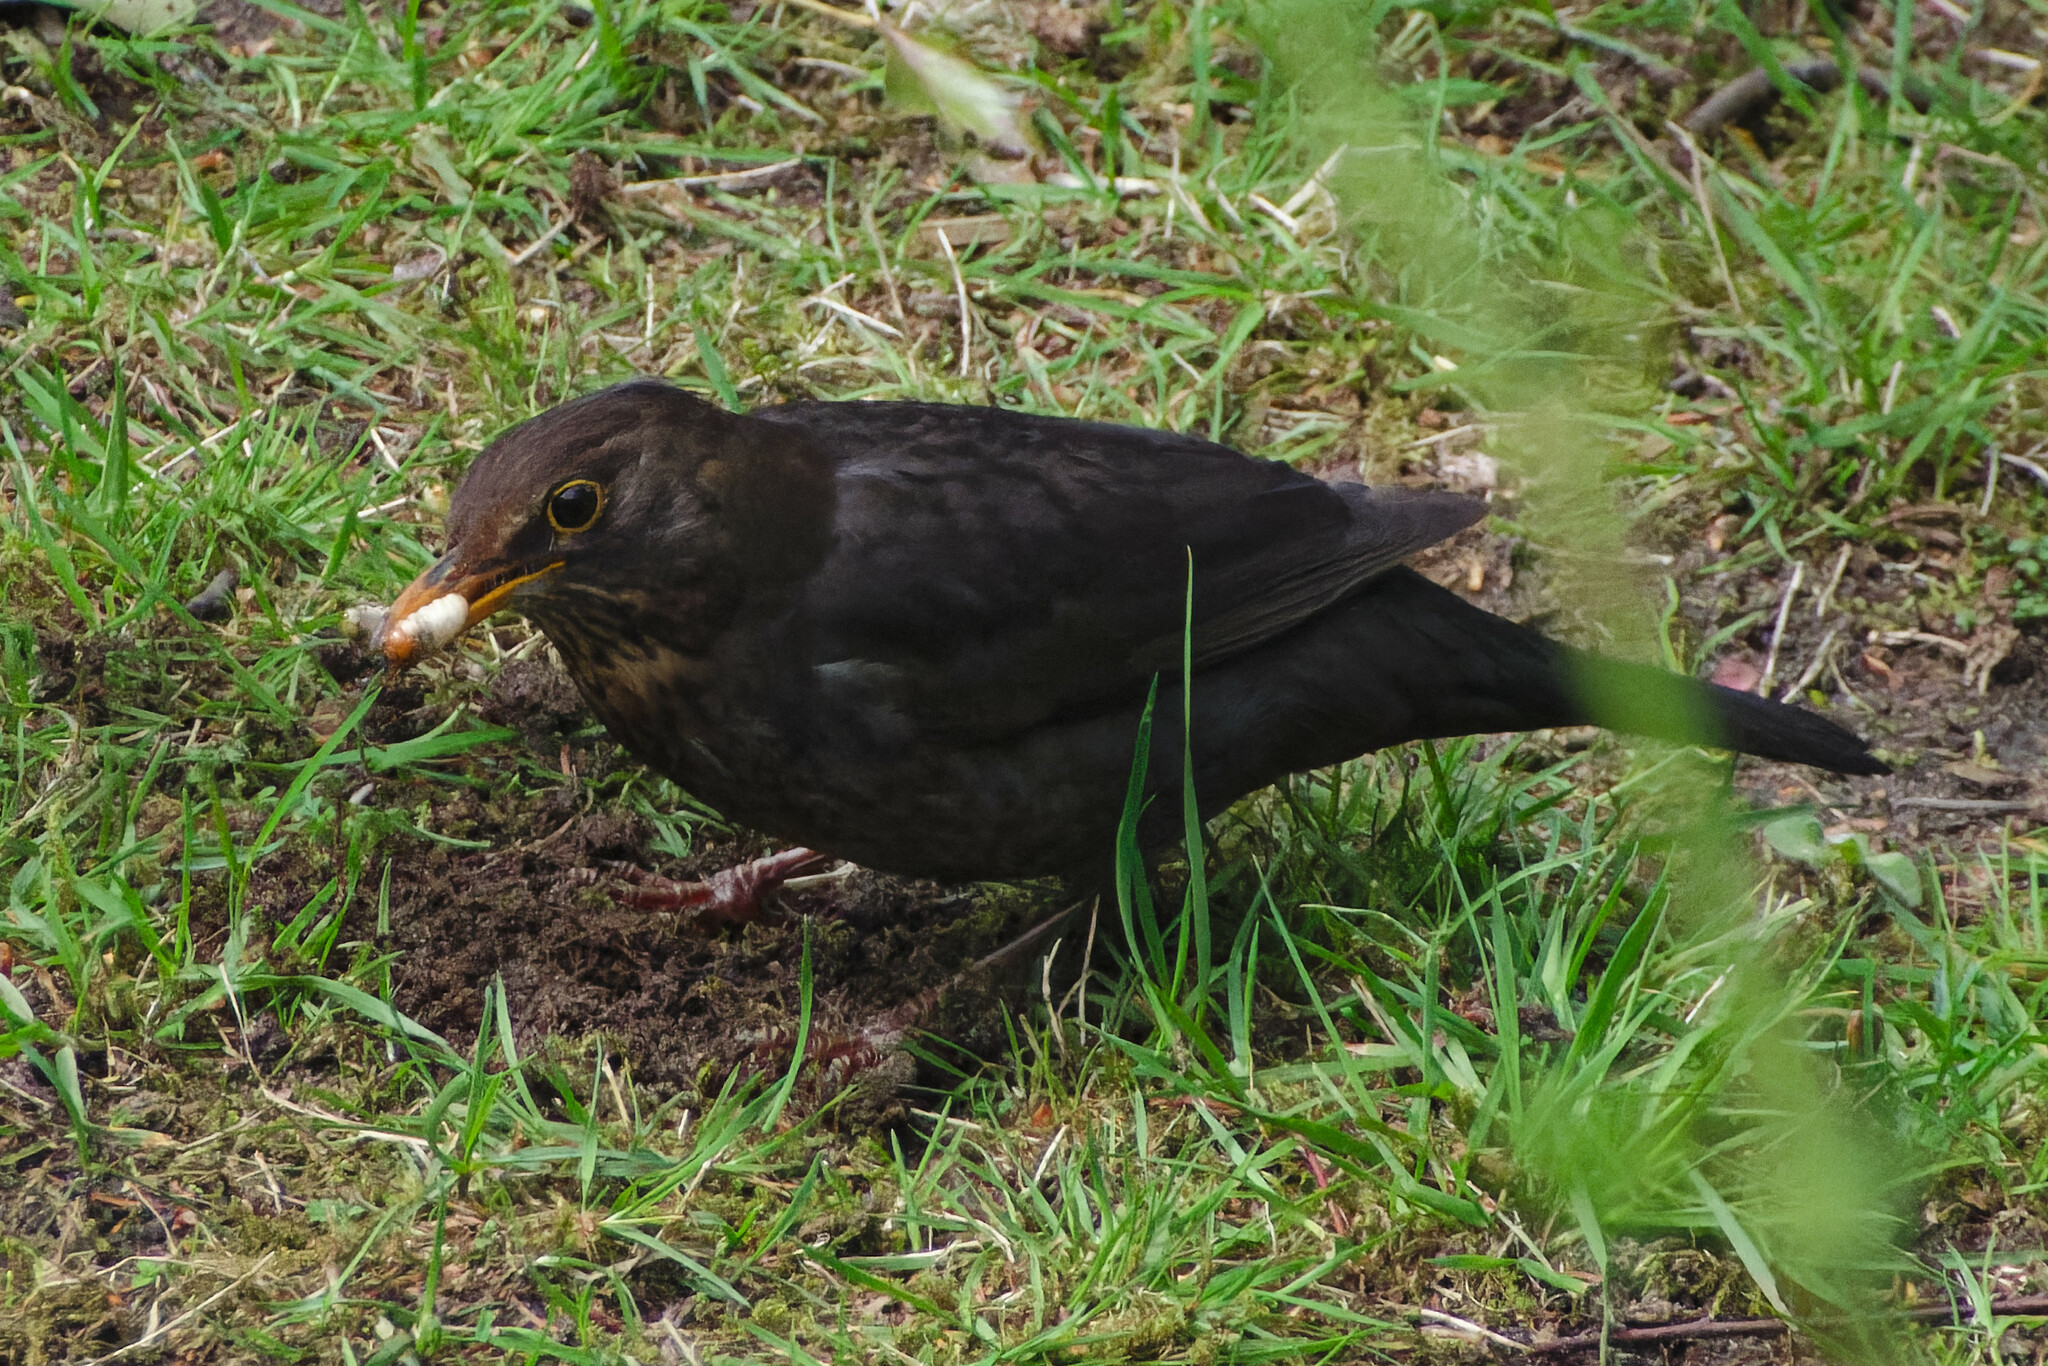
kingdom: Animalia
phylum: Chordata
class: Aves
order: Passeriformes
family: Turdidae
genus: Turdus
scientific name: Turdus merula
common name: Common blackbird
